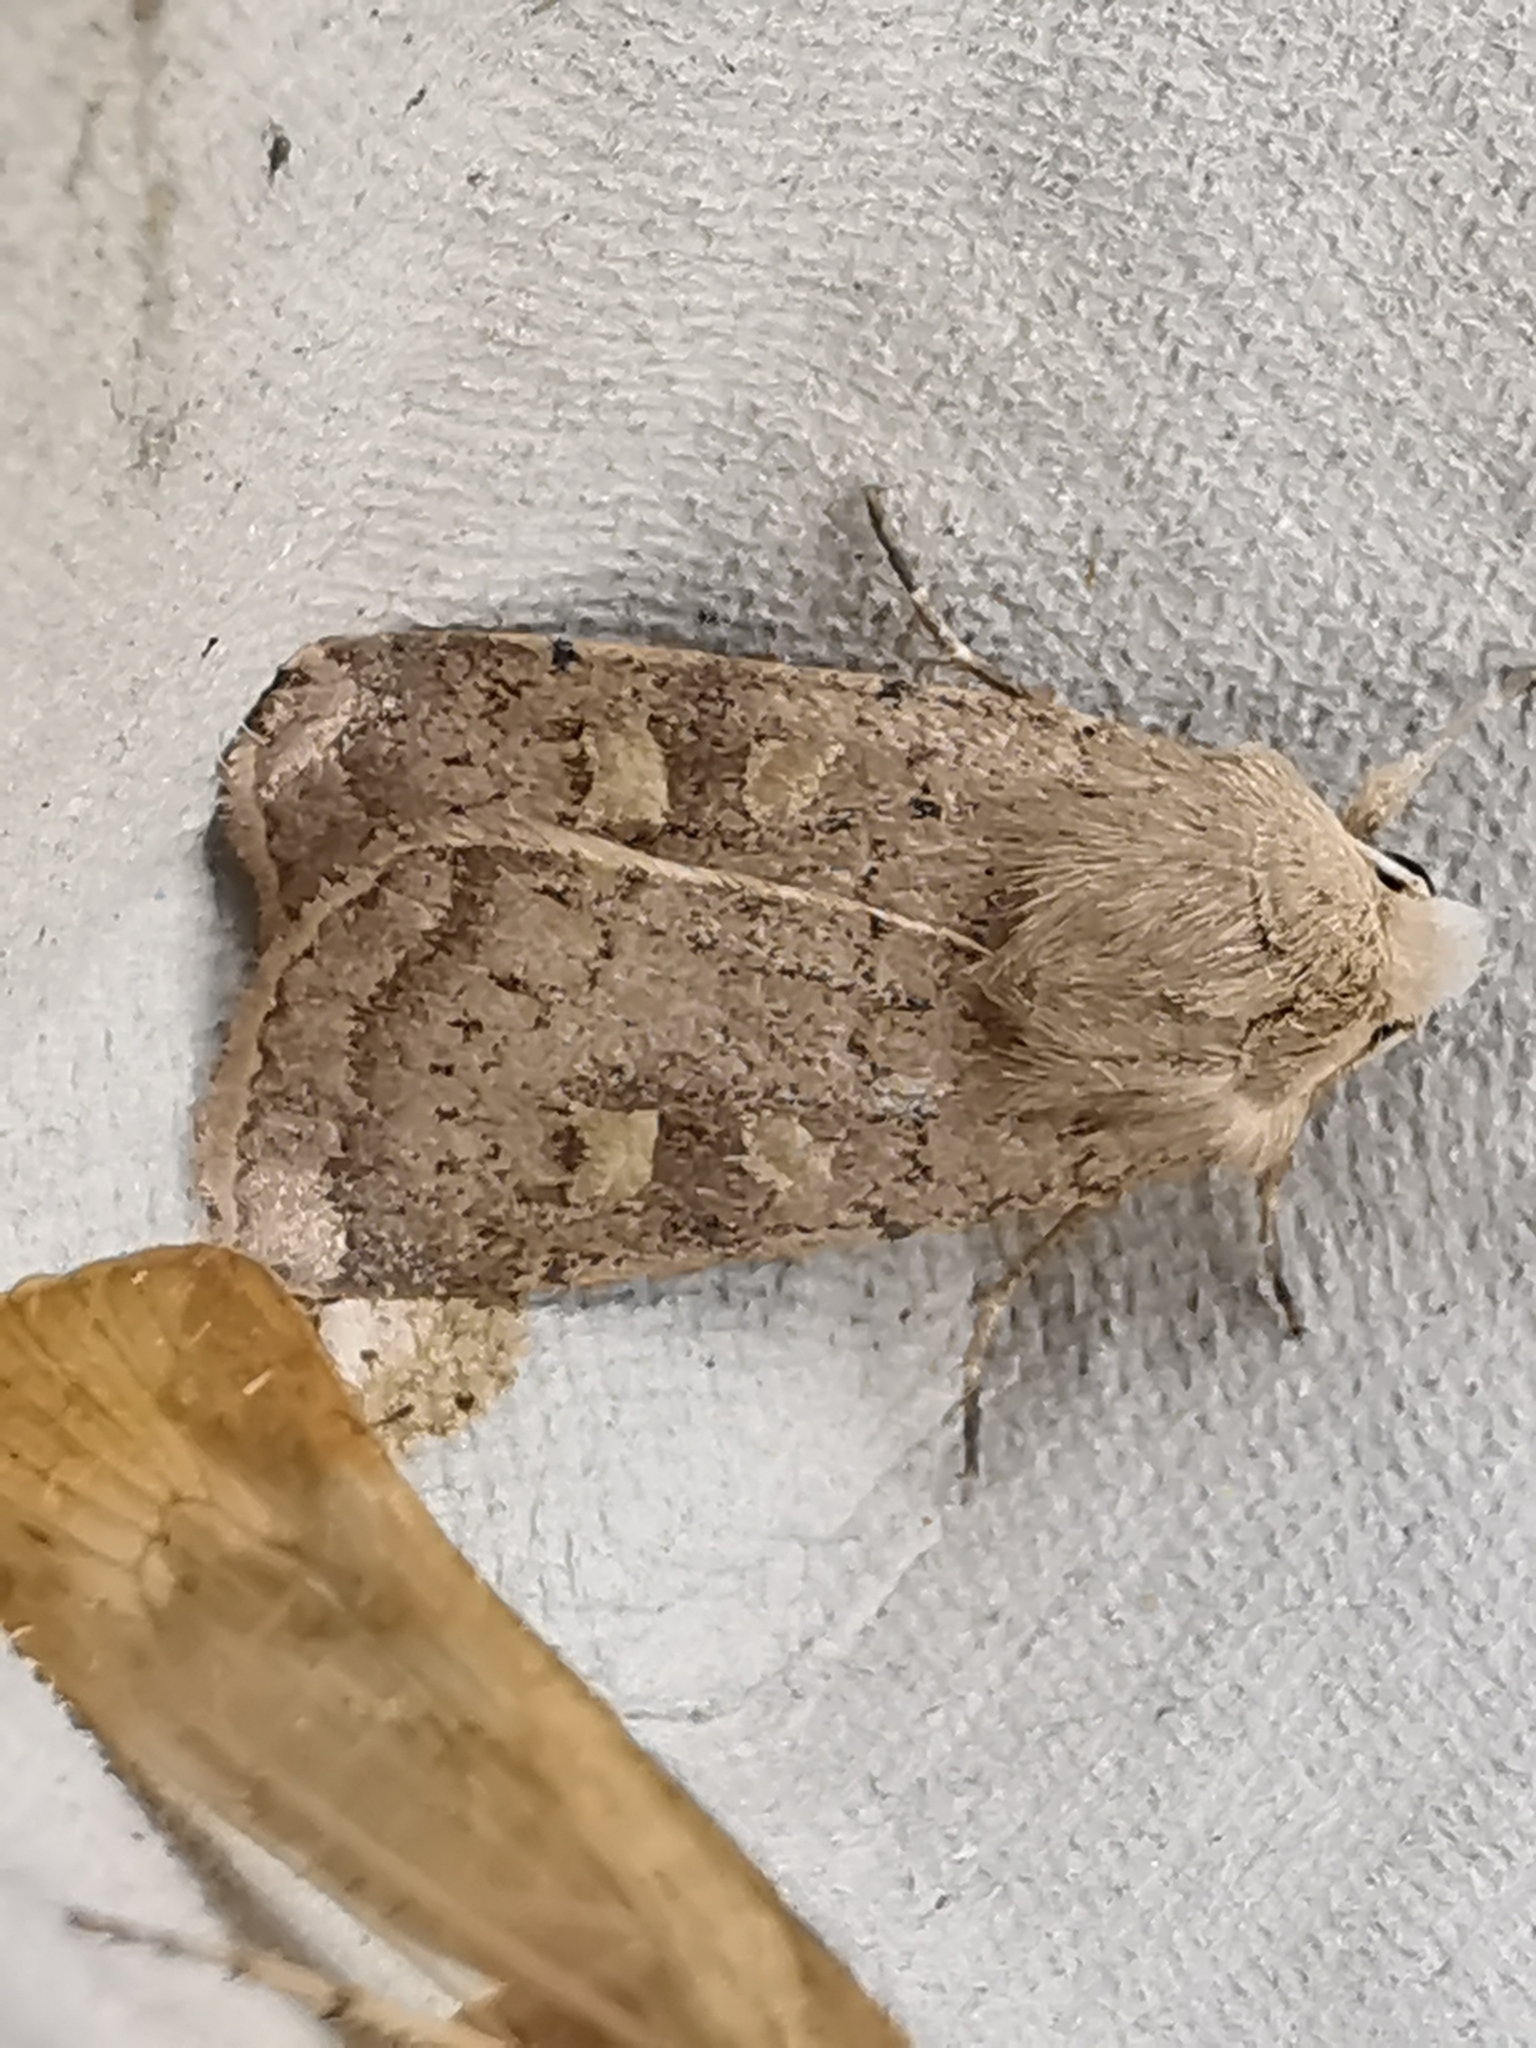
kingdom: Animalia
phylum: Arthropoda
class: Insecta
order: Lepidoptera
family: Noctuidae
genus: Xestia
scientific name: Xestia xanthographa
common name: Square-spot rustic
